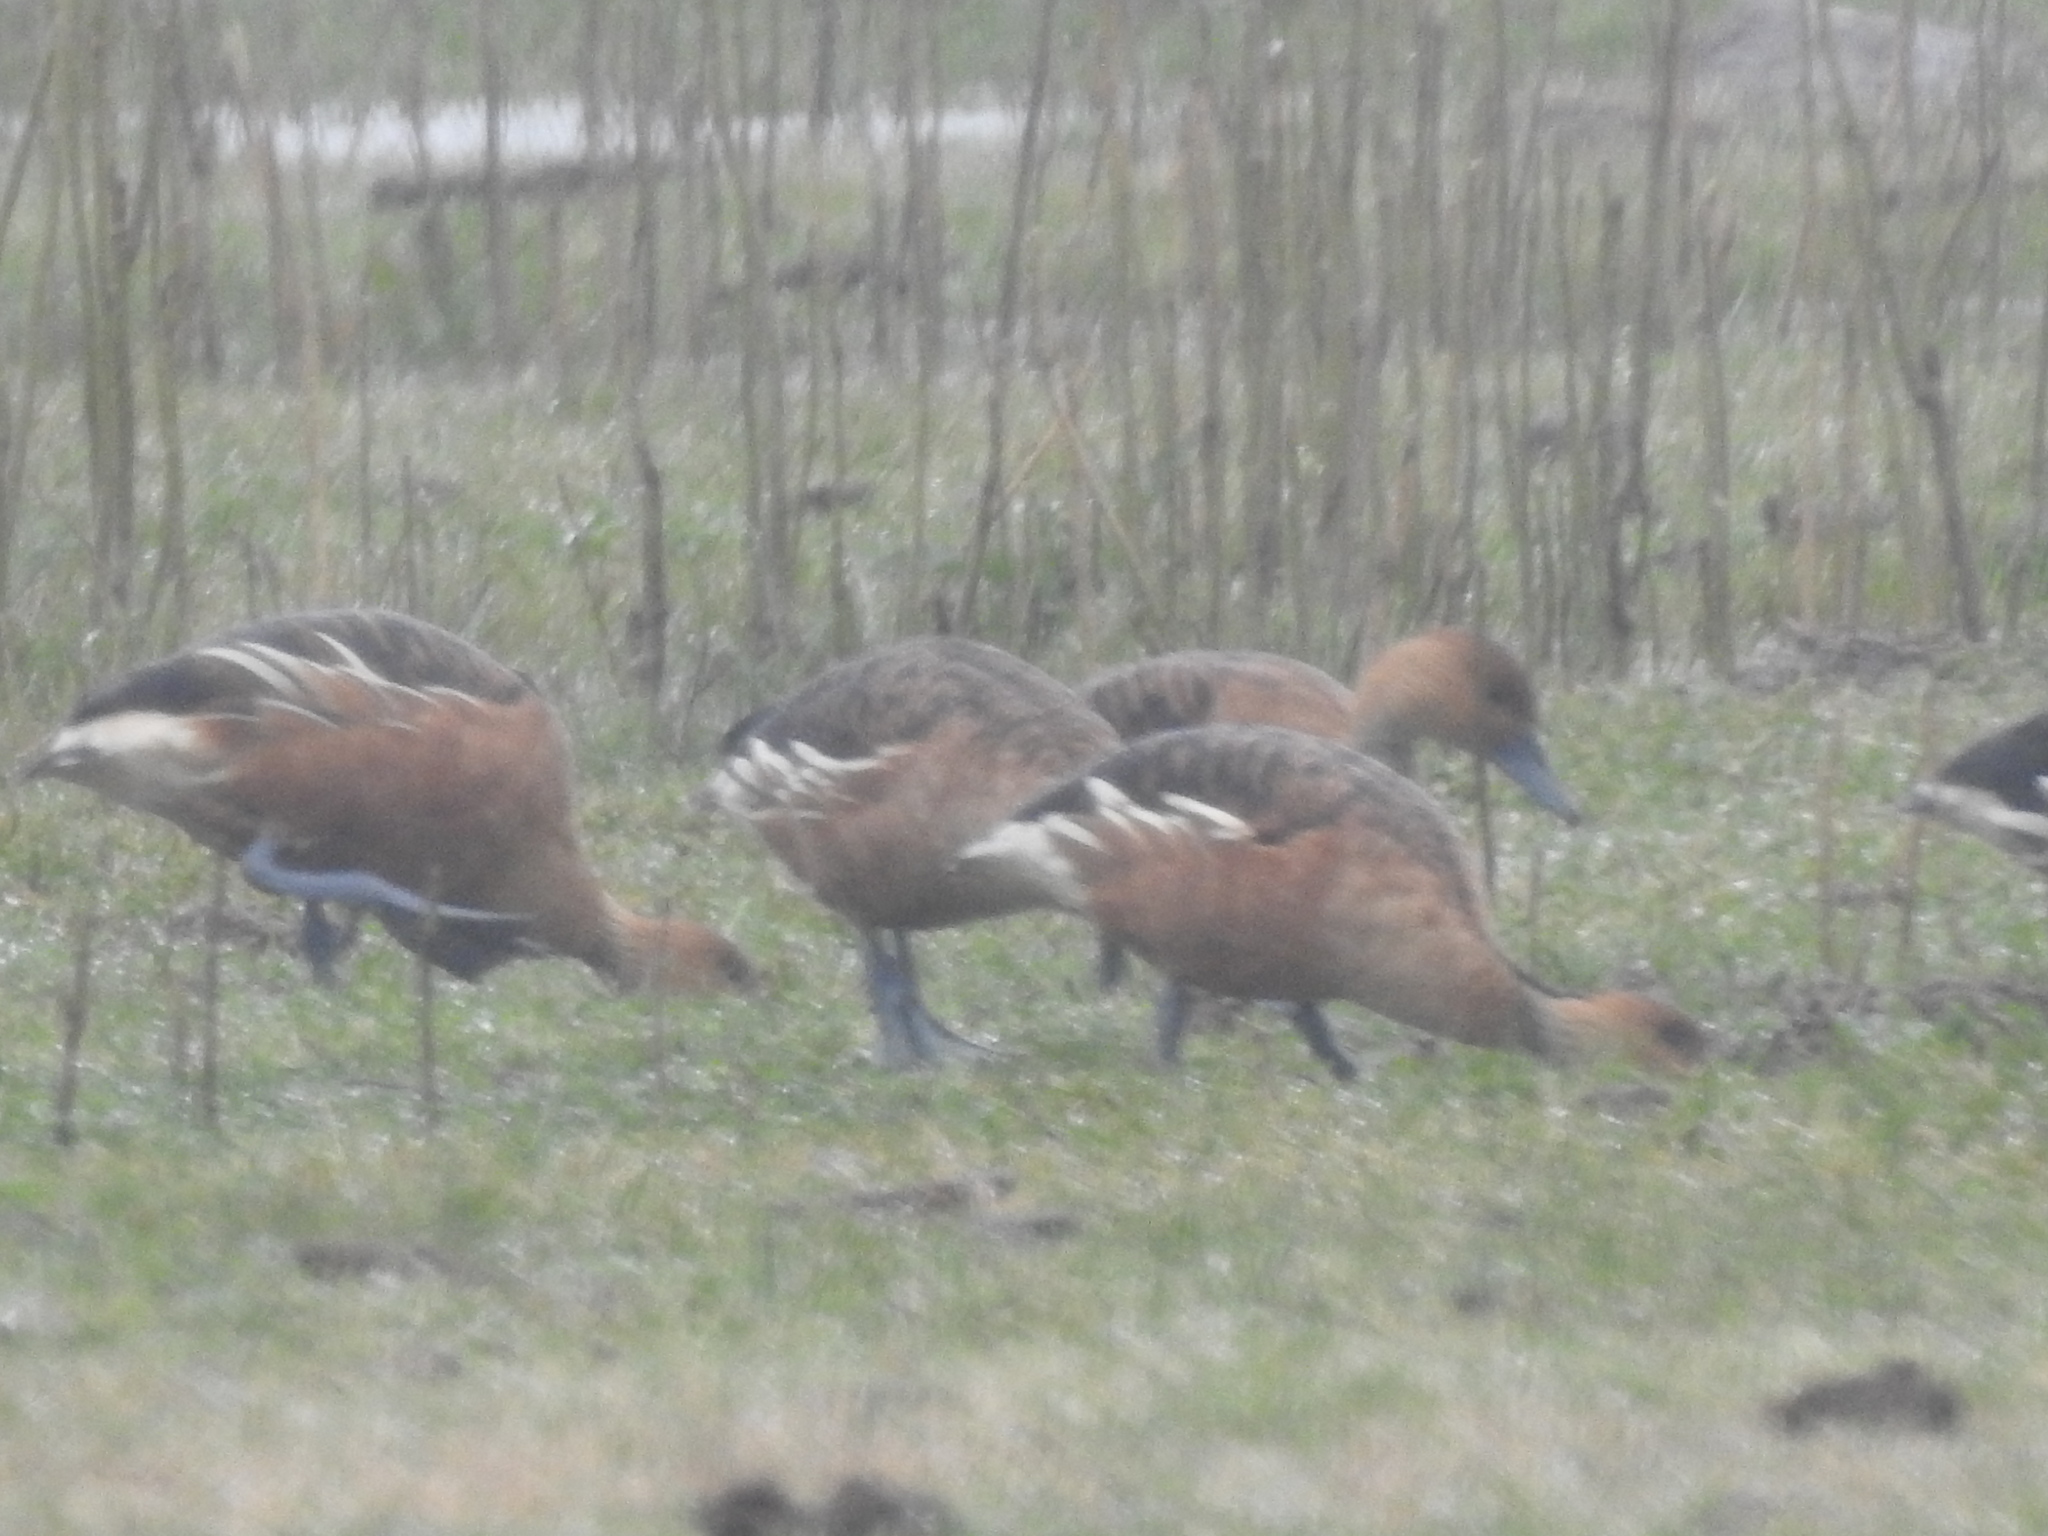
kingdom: Animalia
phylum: Chordata
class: Aves
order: Anseriformes
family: Anatidae
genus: Dendrocygna
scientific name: Dendrocygna bicolor
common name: Fulvous whistling duck
